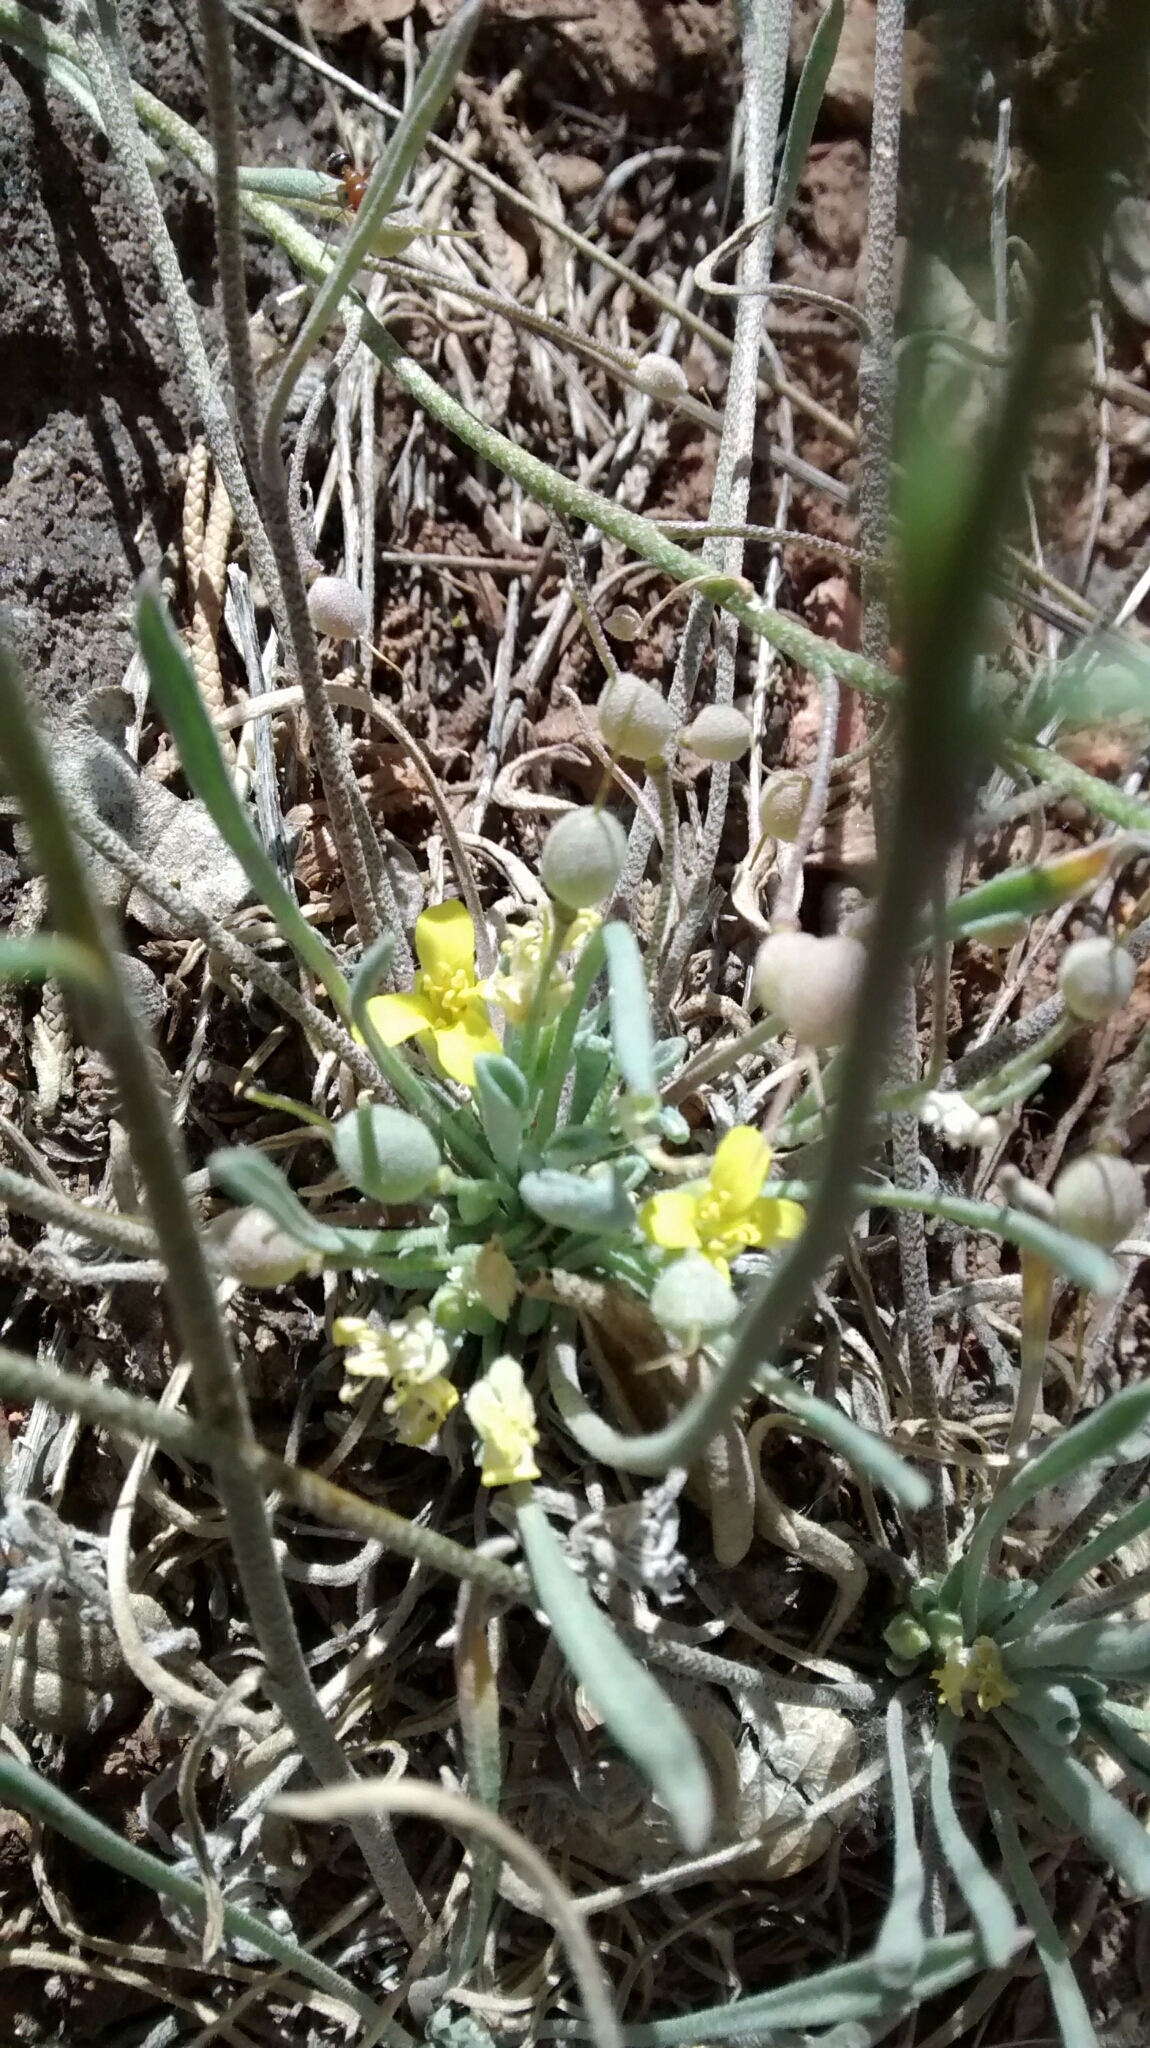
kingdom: Plantae
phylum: Tracheophyta
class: Magnoliopsida
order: Brassicales
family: Brassicaceae
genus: Physaria
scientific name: Physaria acutifolia
